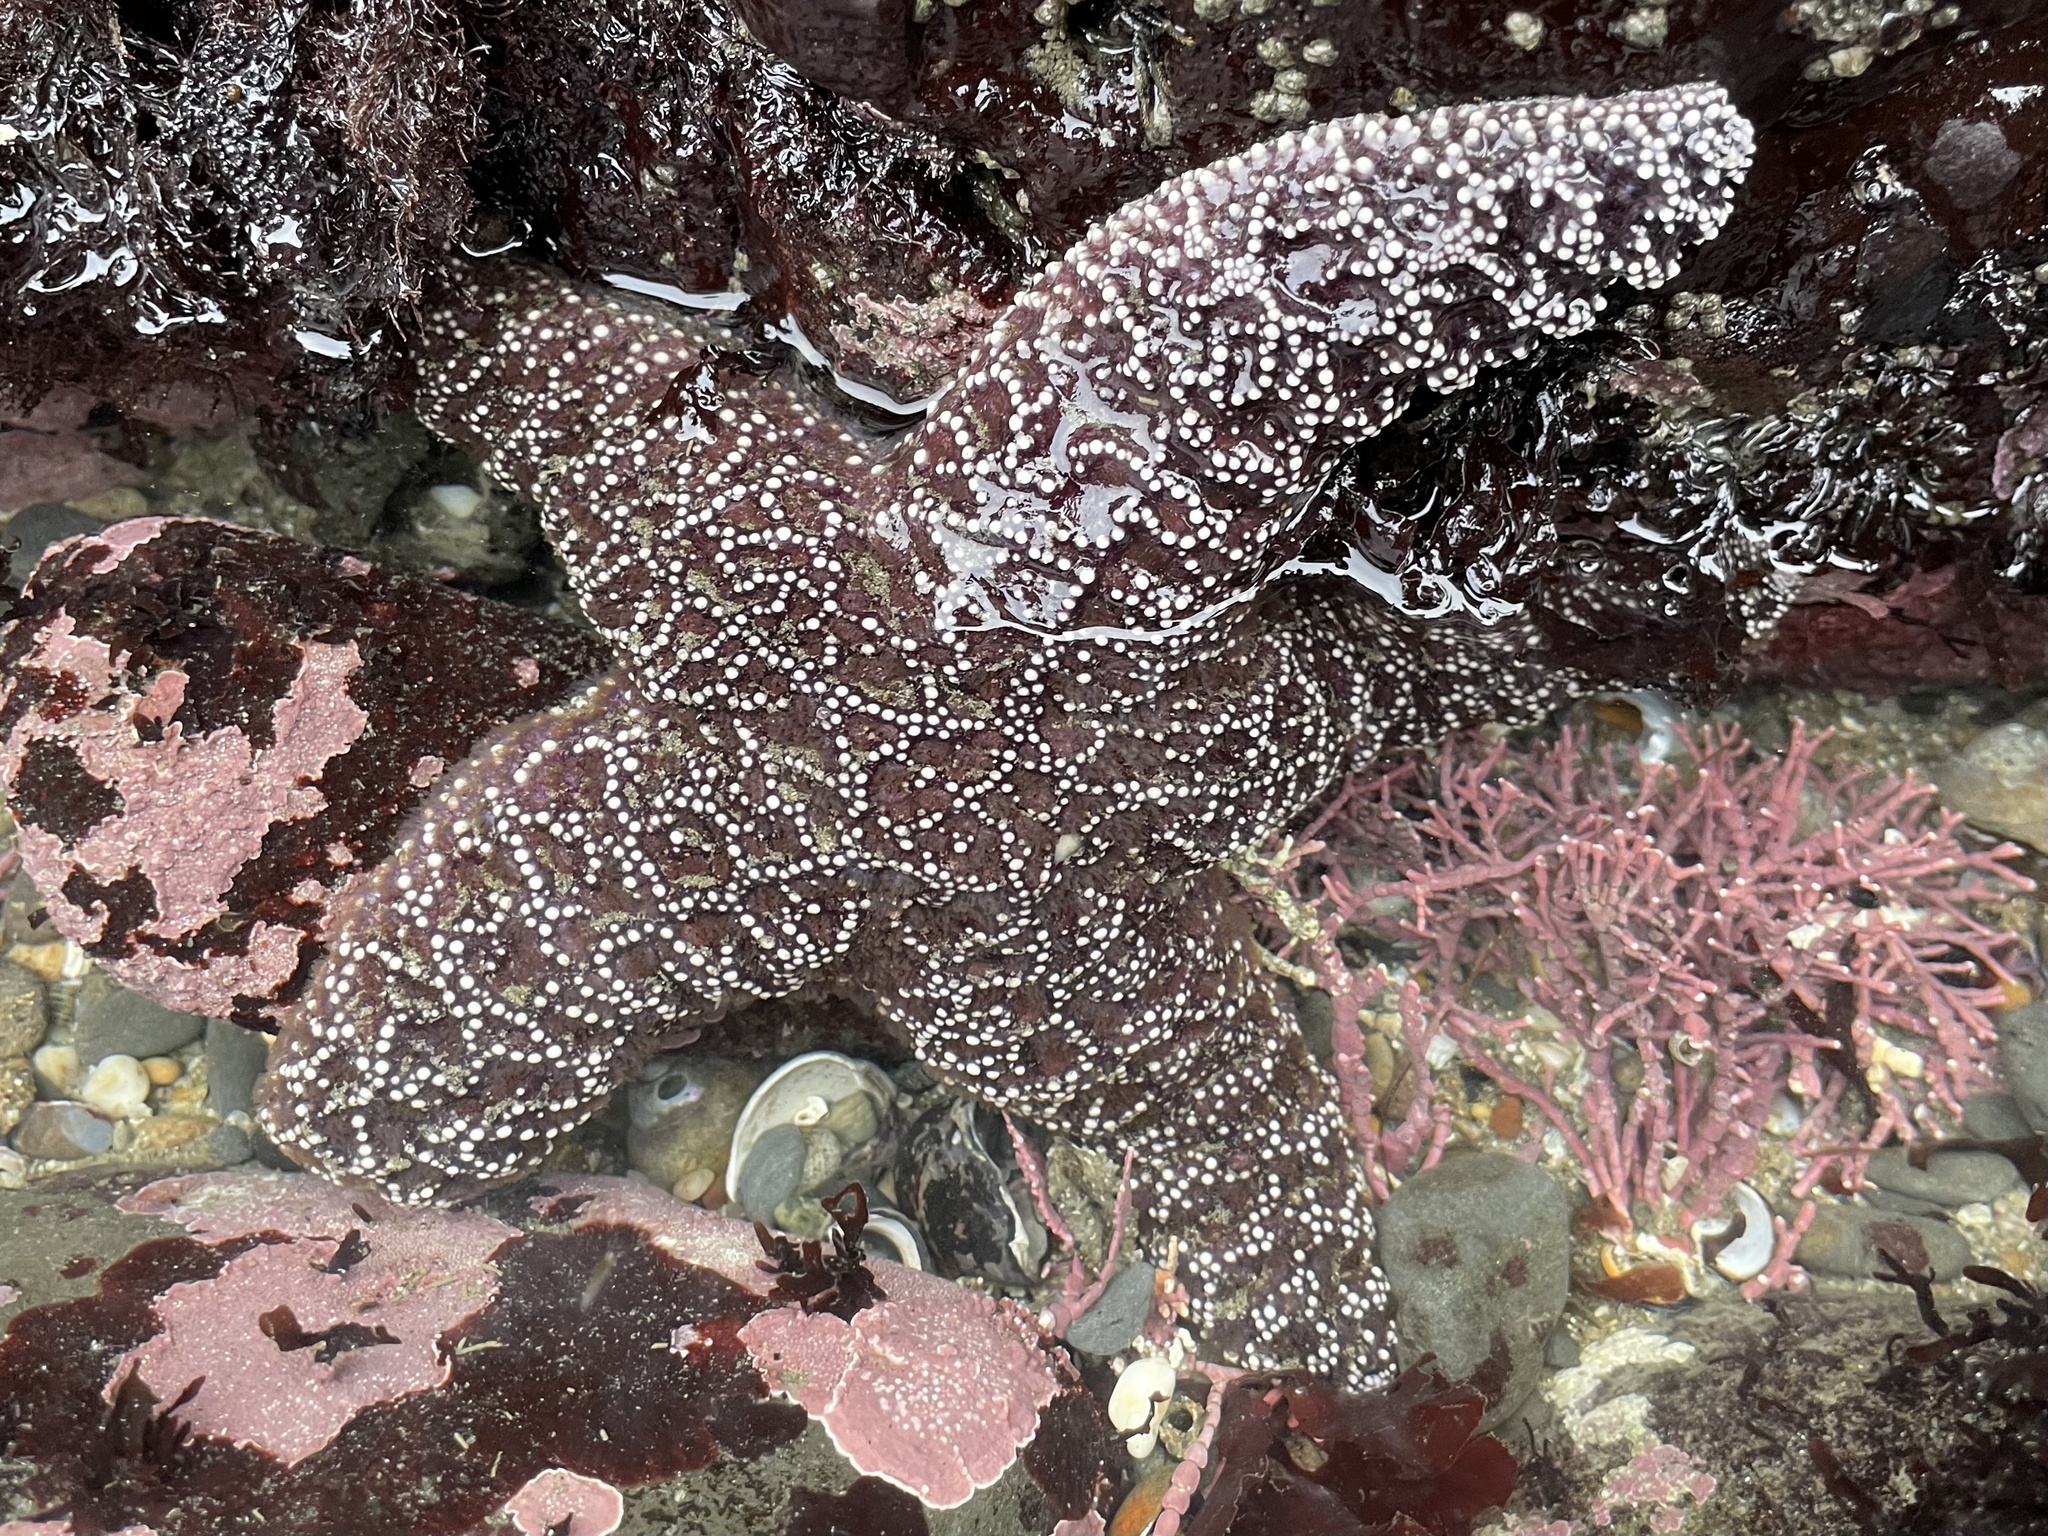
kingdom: Animalia
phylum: Echinodermata
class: Asteroidea
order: Forcipulatida
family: Asteriidae
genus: Pisaster
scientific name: Pisaster ochraceus
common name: Ochre stars
